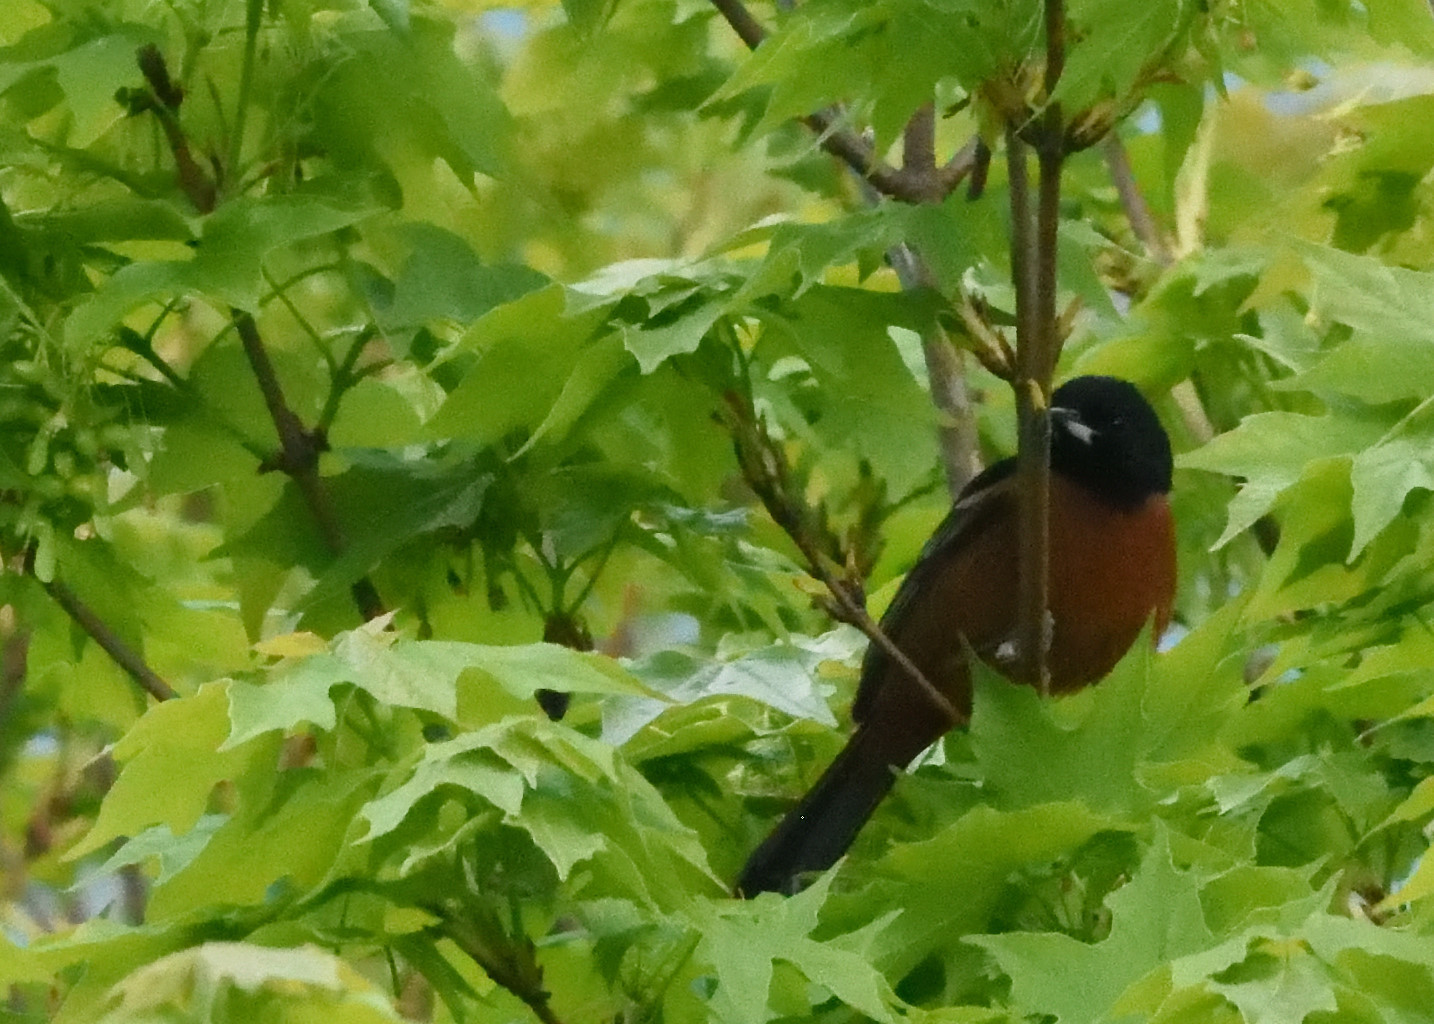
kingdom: Animalia
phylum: Chordata
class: Aves
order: Passeriformes
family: Icteridae
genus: Icterus
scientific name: Icterus spurius
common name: Orchard oriole
